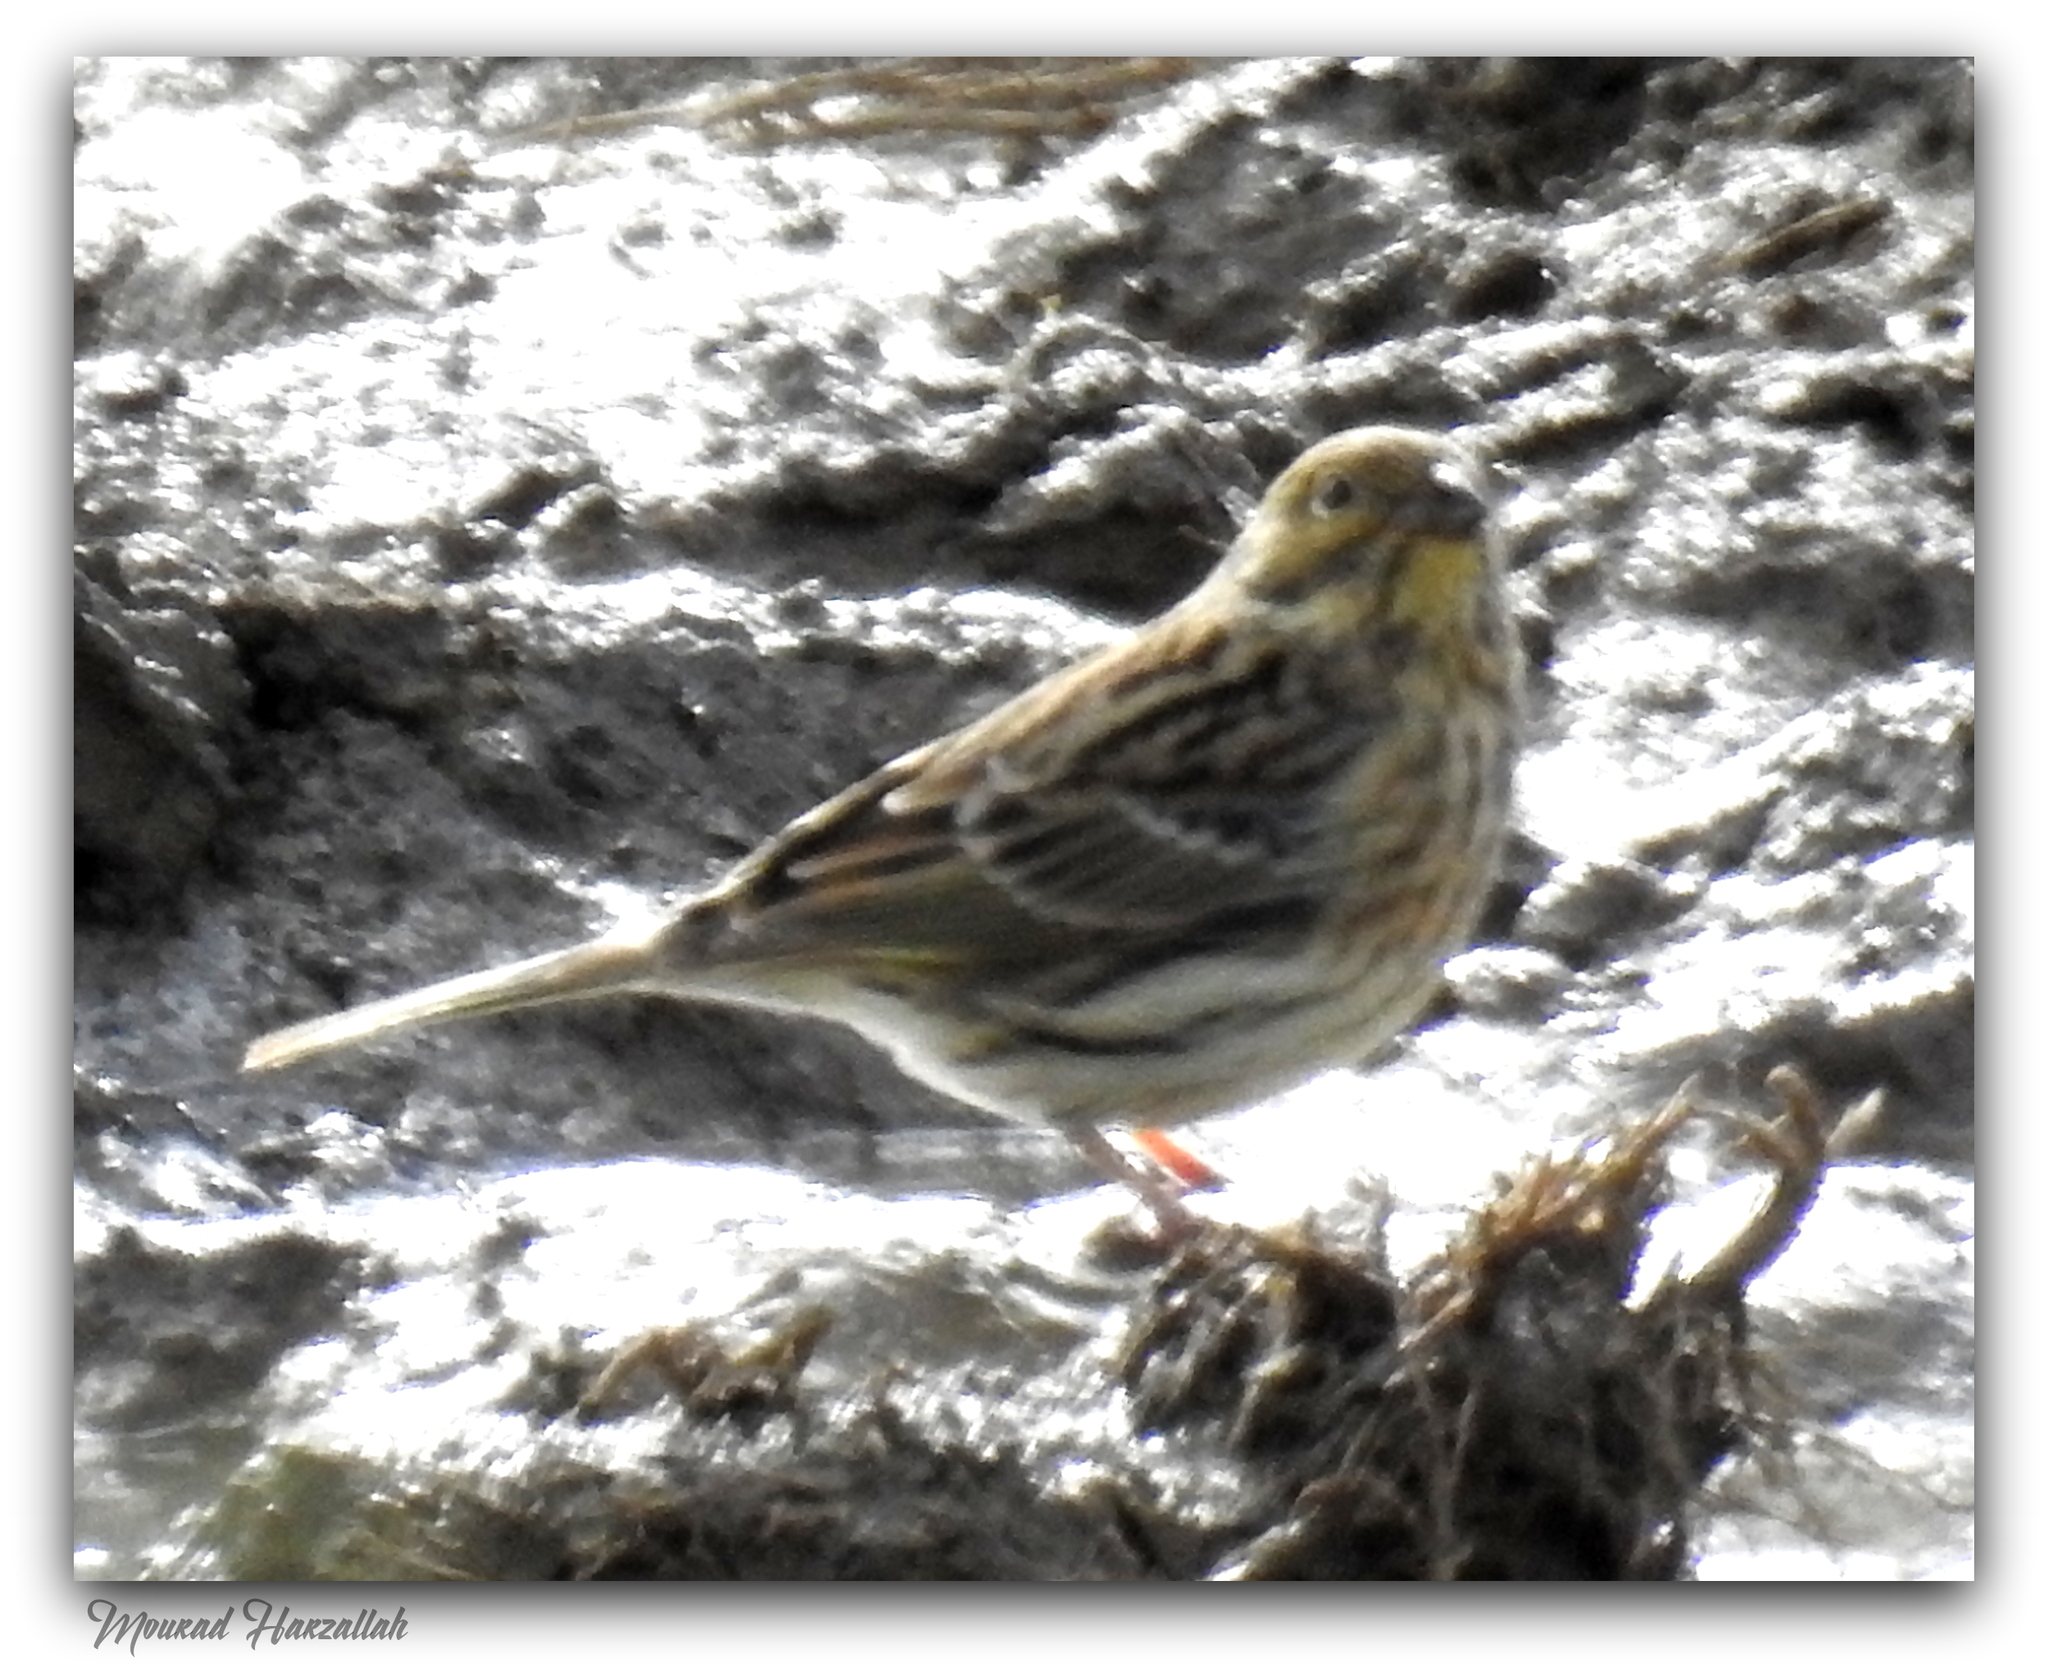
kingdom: Animalia
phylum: Chordata
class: Aves
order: Passeriformes
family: Emberizidae
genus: Emberiza
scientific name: Emberiza cirlus
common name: Cirl bunting
